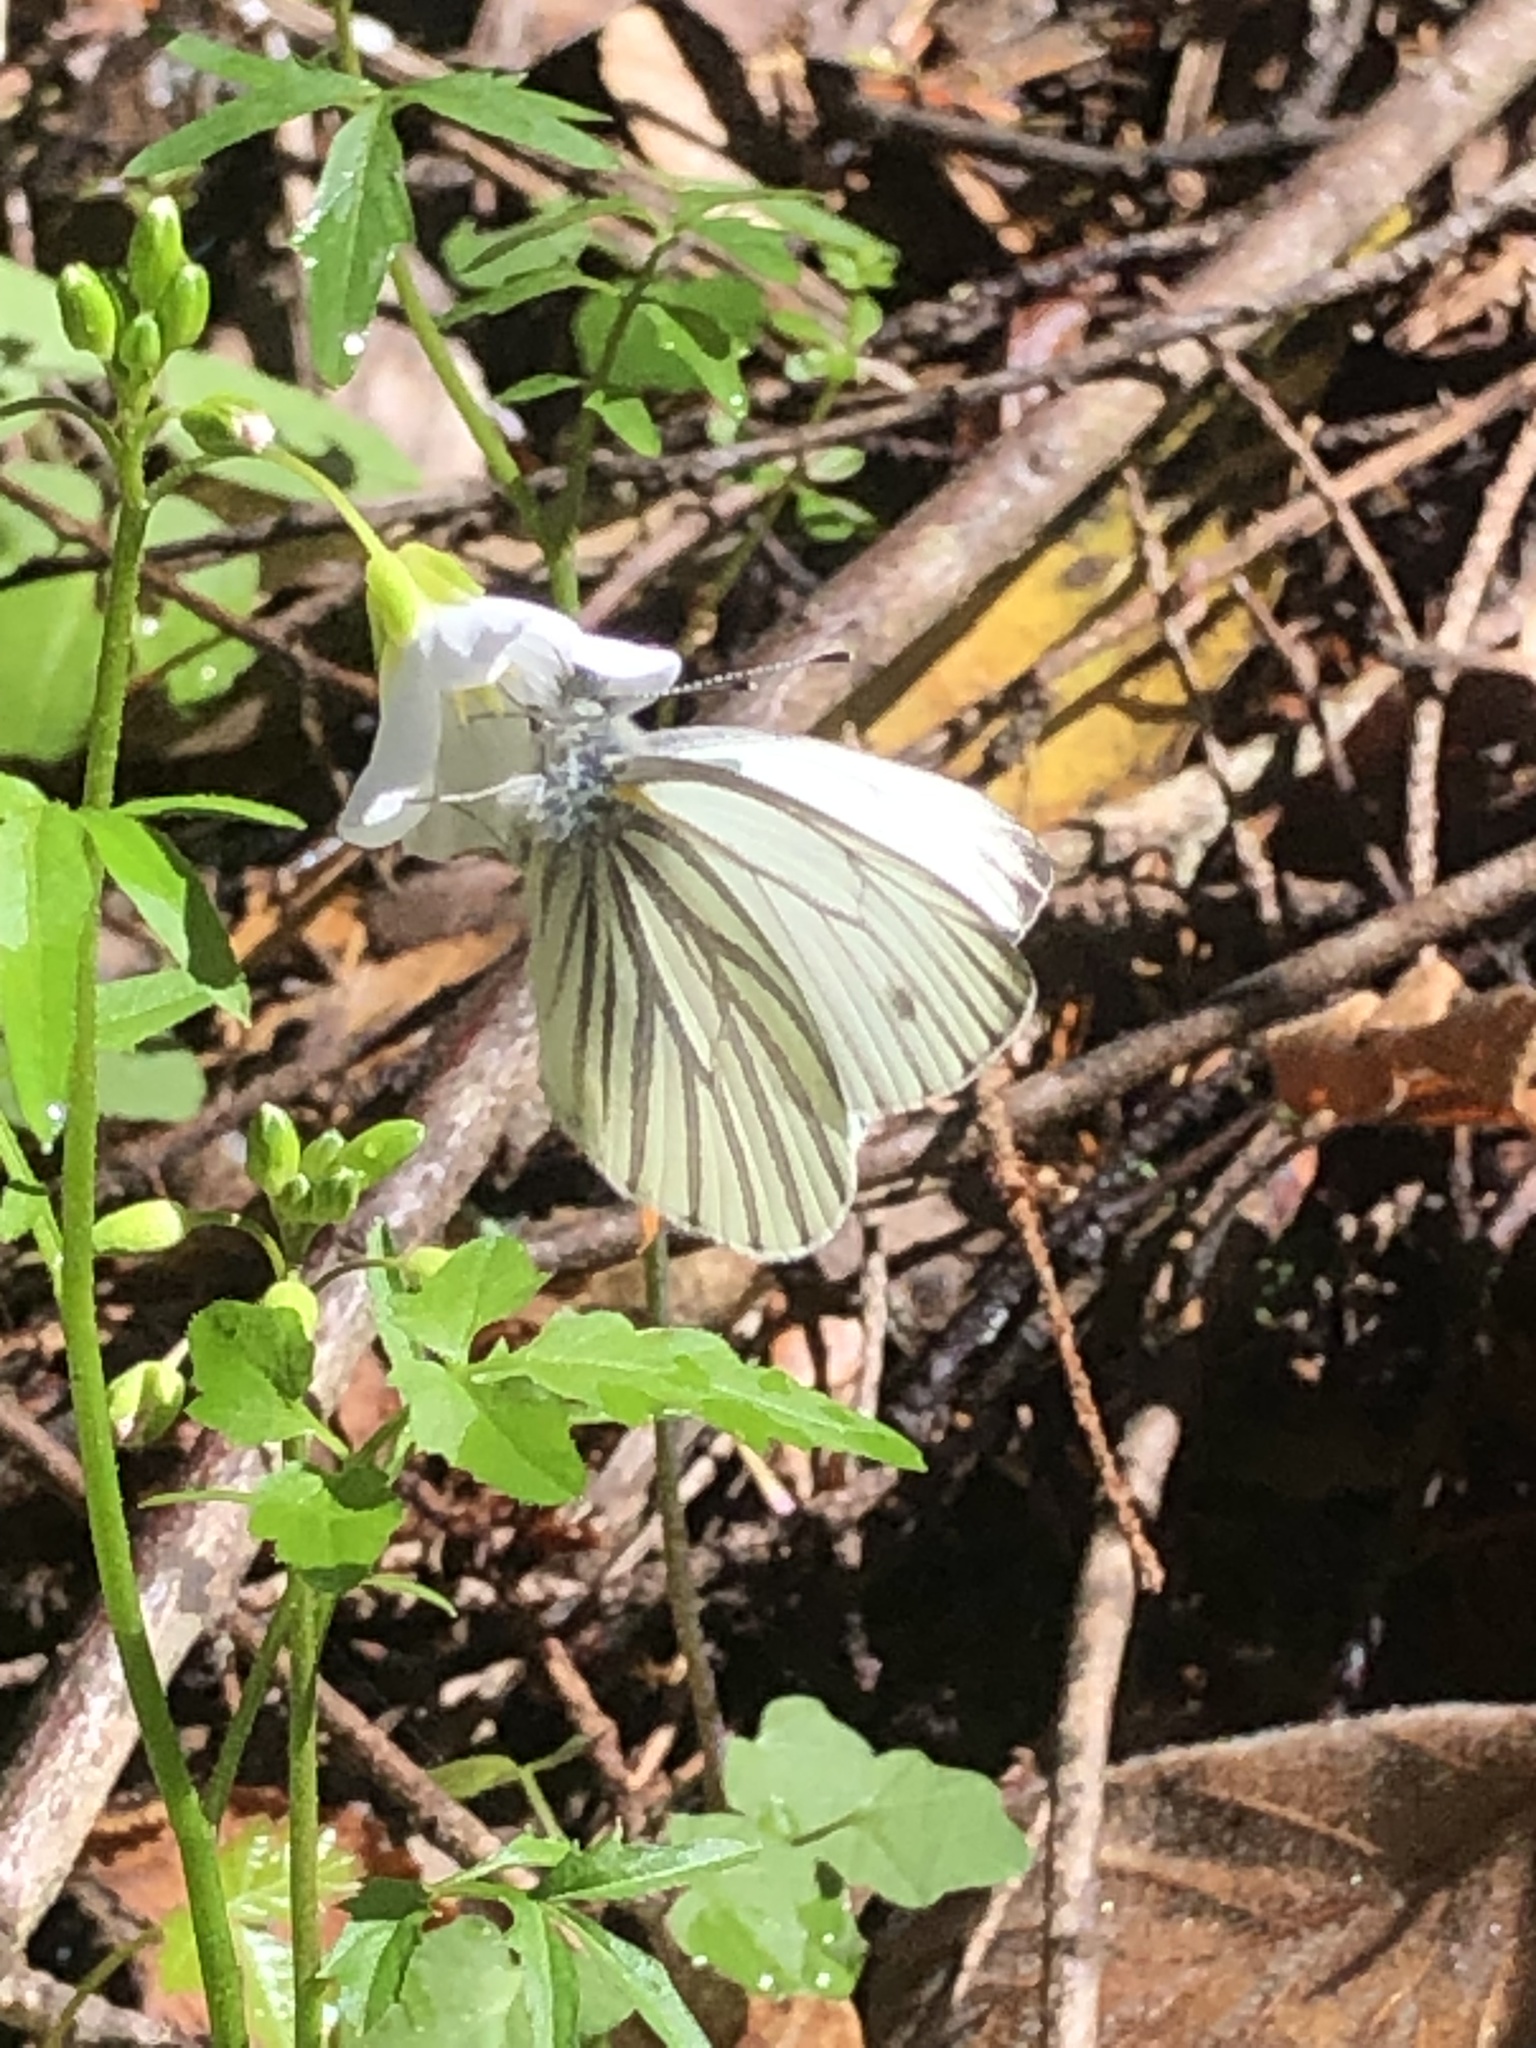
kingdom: Animalia
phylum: Arthropoda
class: Insecta
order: Lepidoptera
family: Pieridae
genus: Pieris
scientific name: Pieris marginalis
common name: Margined white
